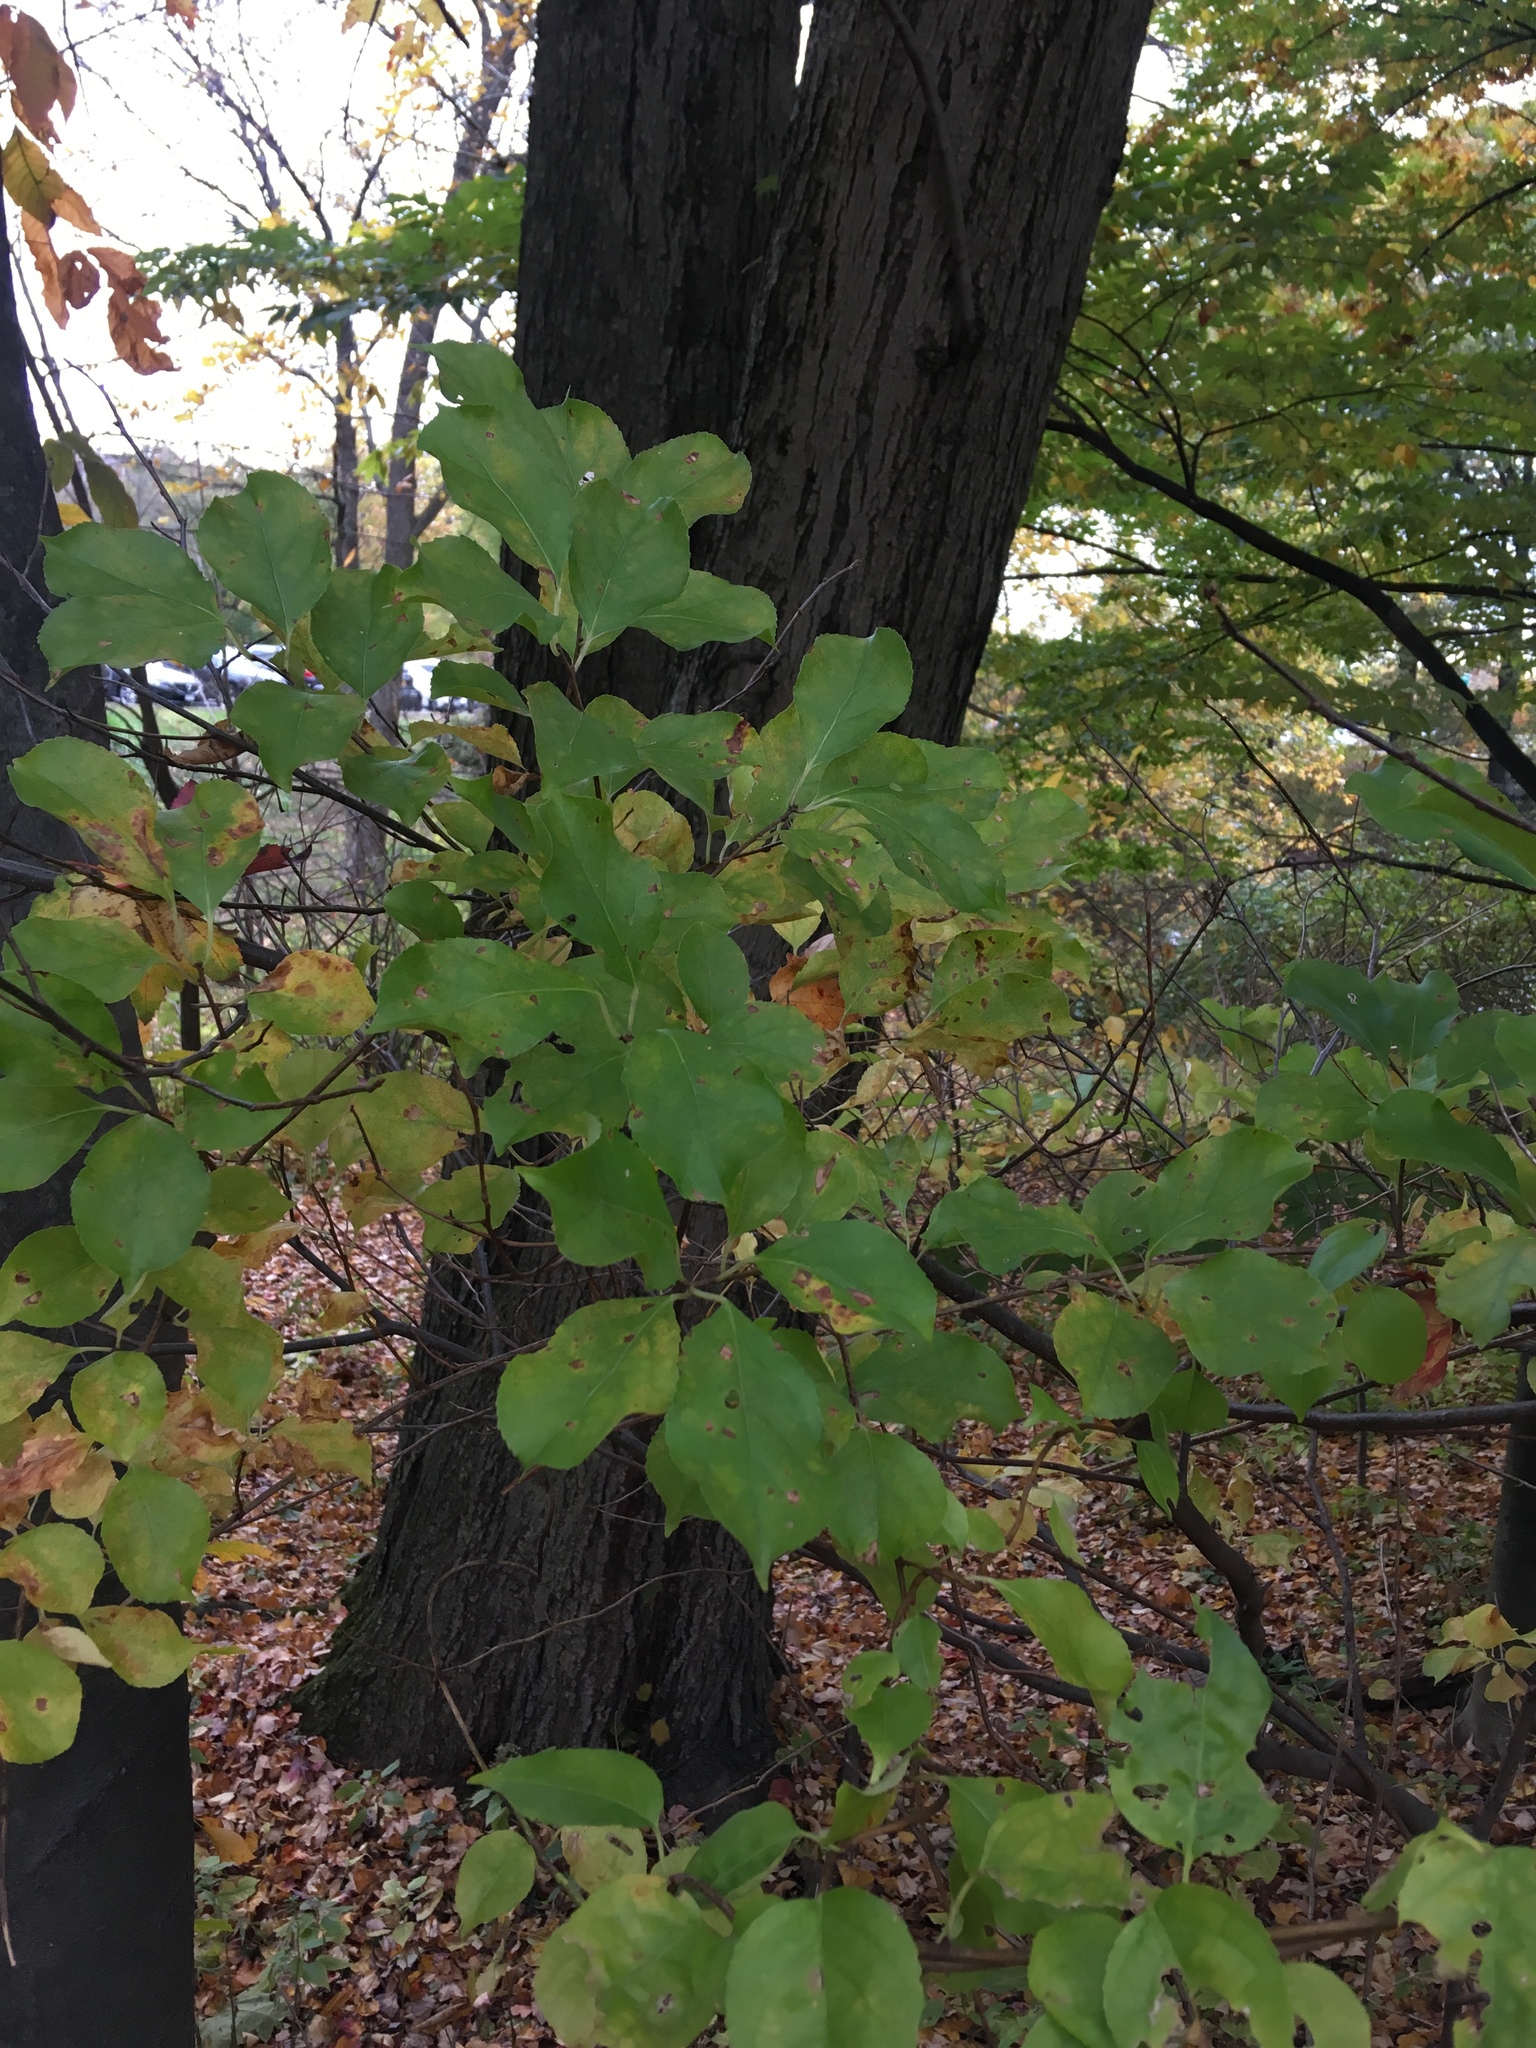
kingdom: Plantae
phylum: Tracheophyta
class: Magnoliopsida
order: Celastrales
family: Celastraceae
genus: Celastrus
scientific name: Celastrus orbiculatus
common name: Oriental bittersweet
